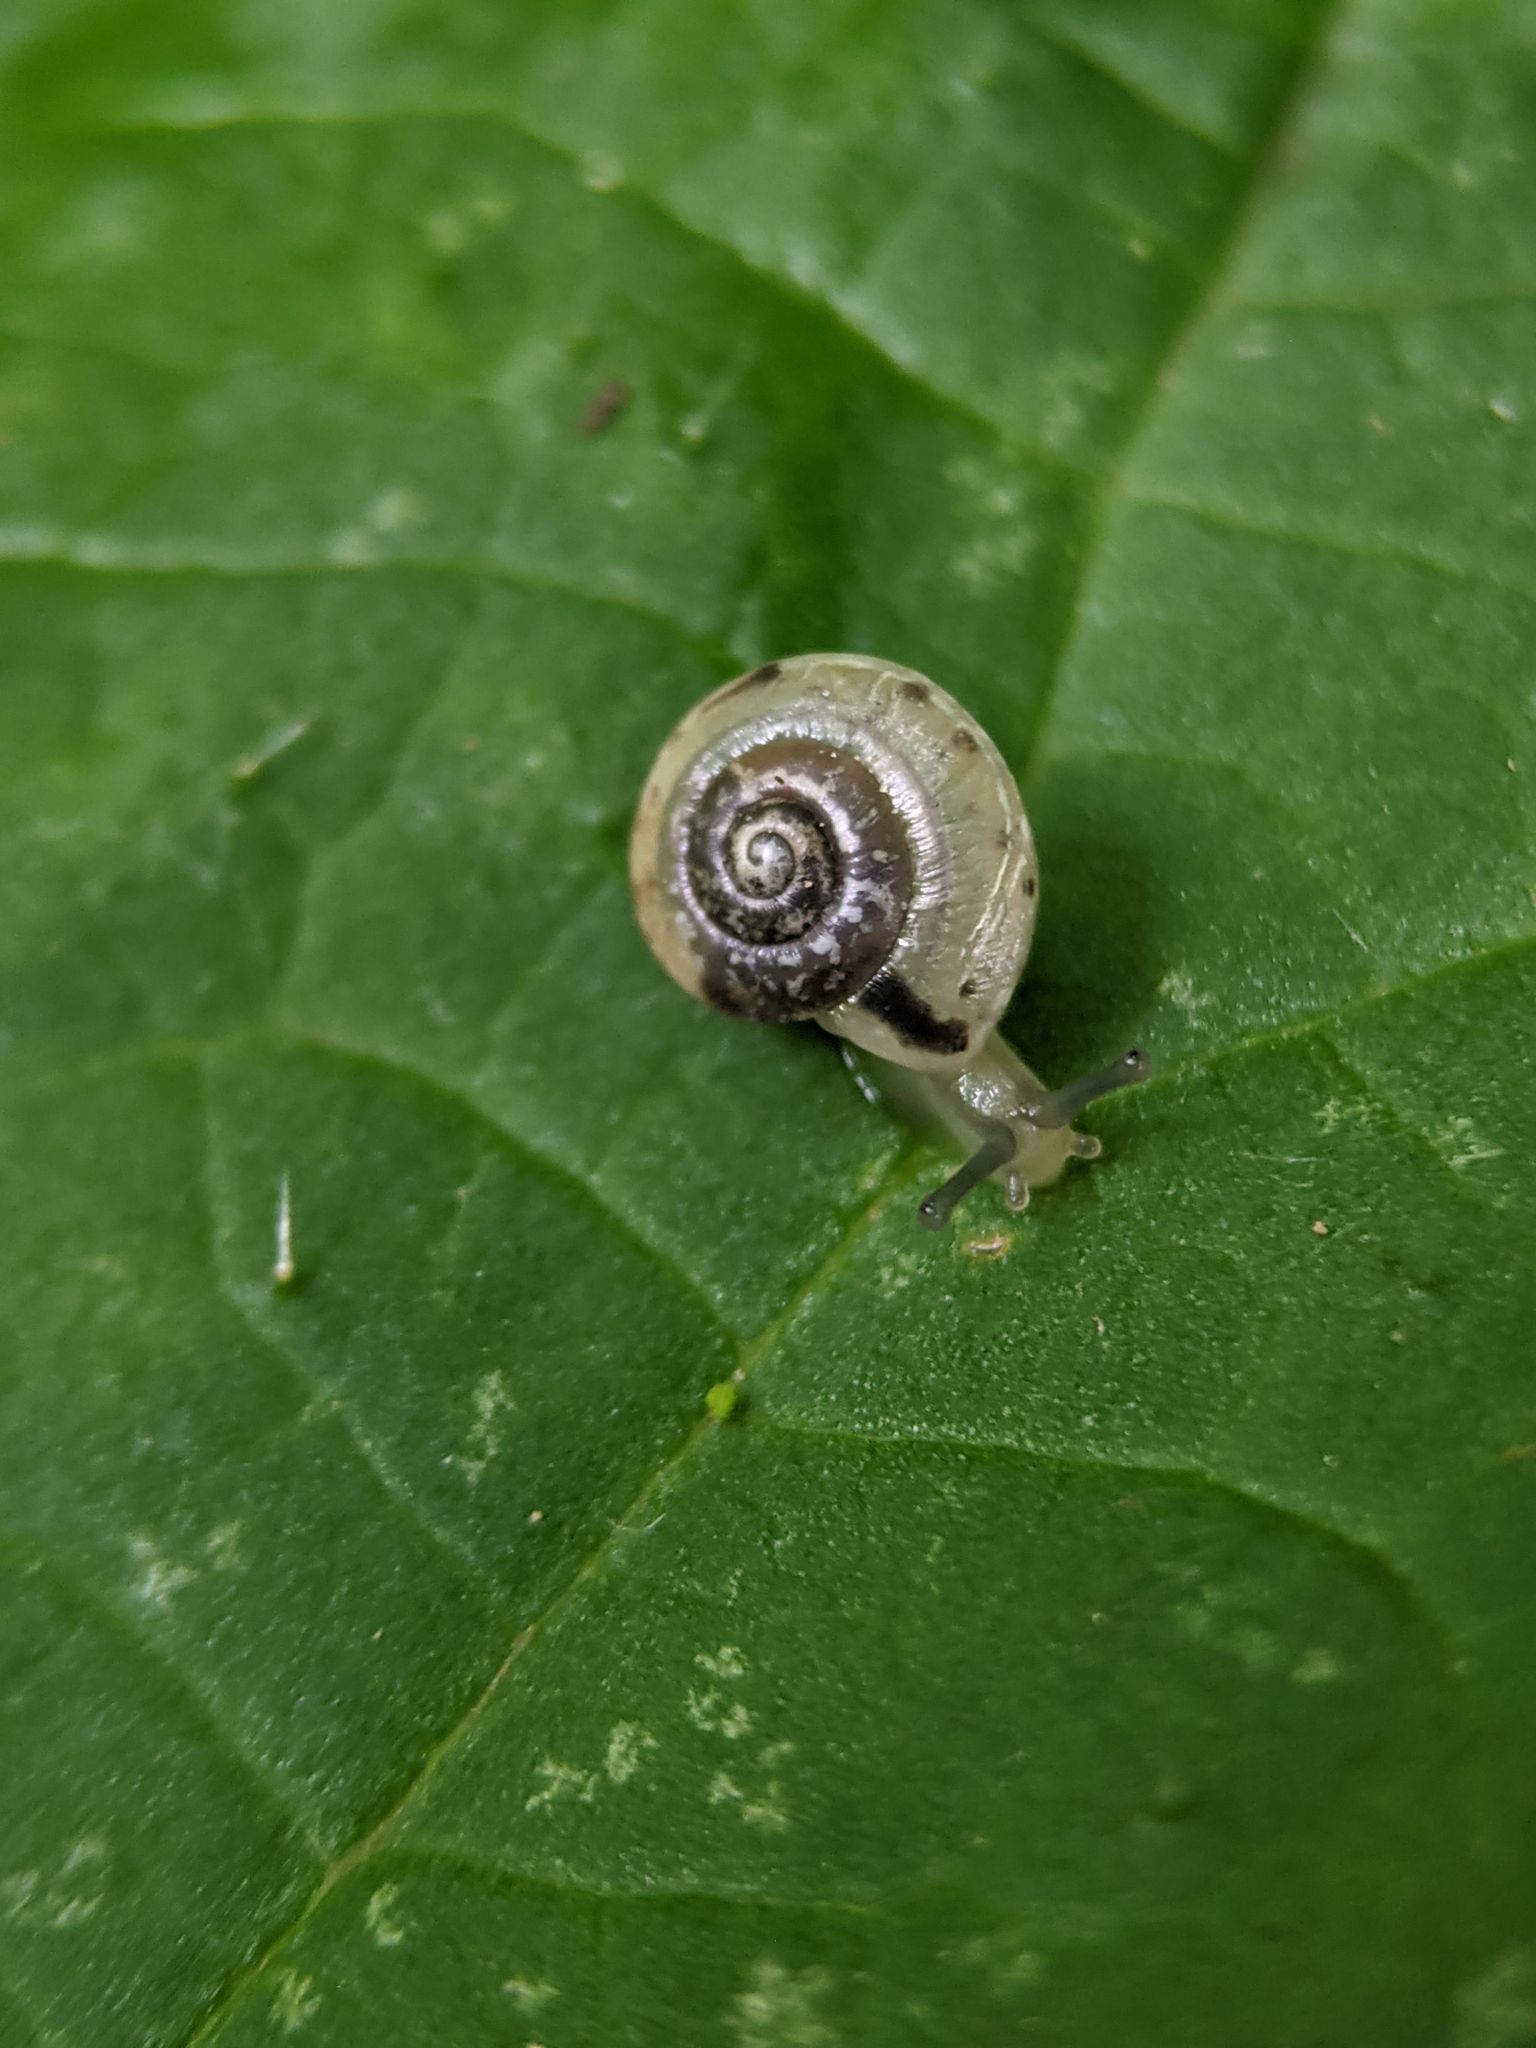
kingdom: Animalia
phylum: Mollusca
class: Gastropoda
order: Stylommatophora
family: Hygromiidae
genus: Hygromia
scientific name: Hygromia cinctella
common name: Girdled snail
